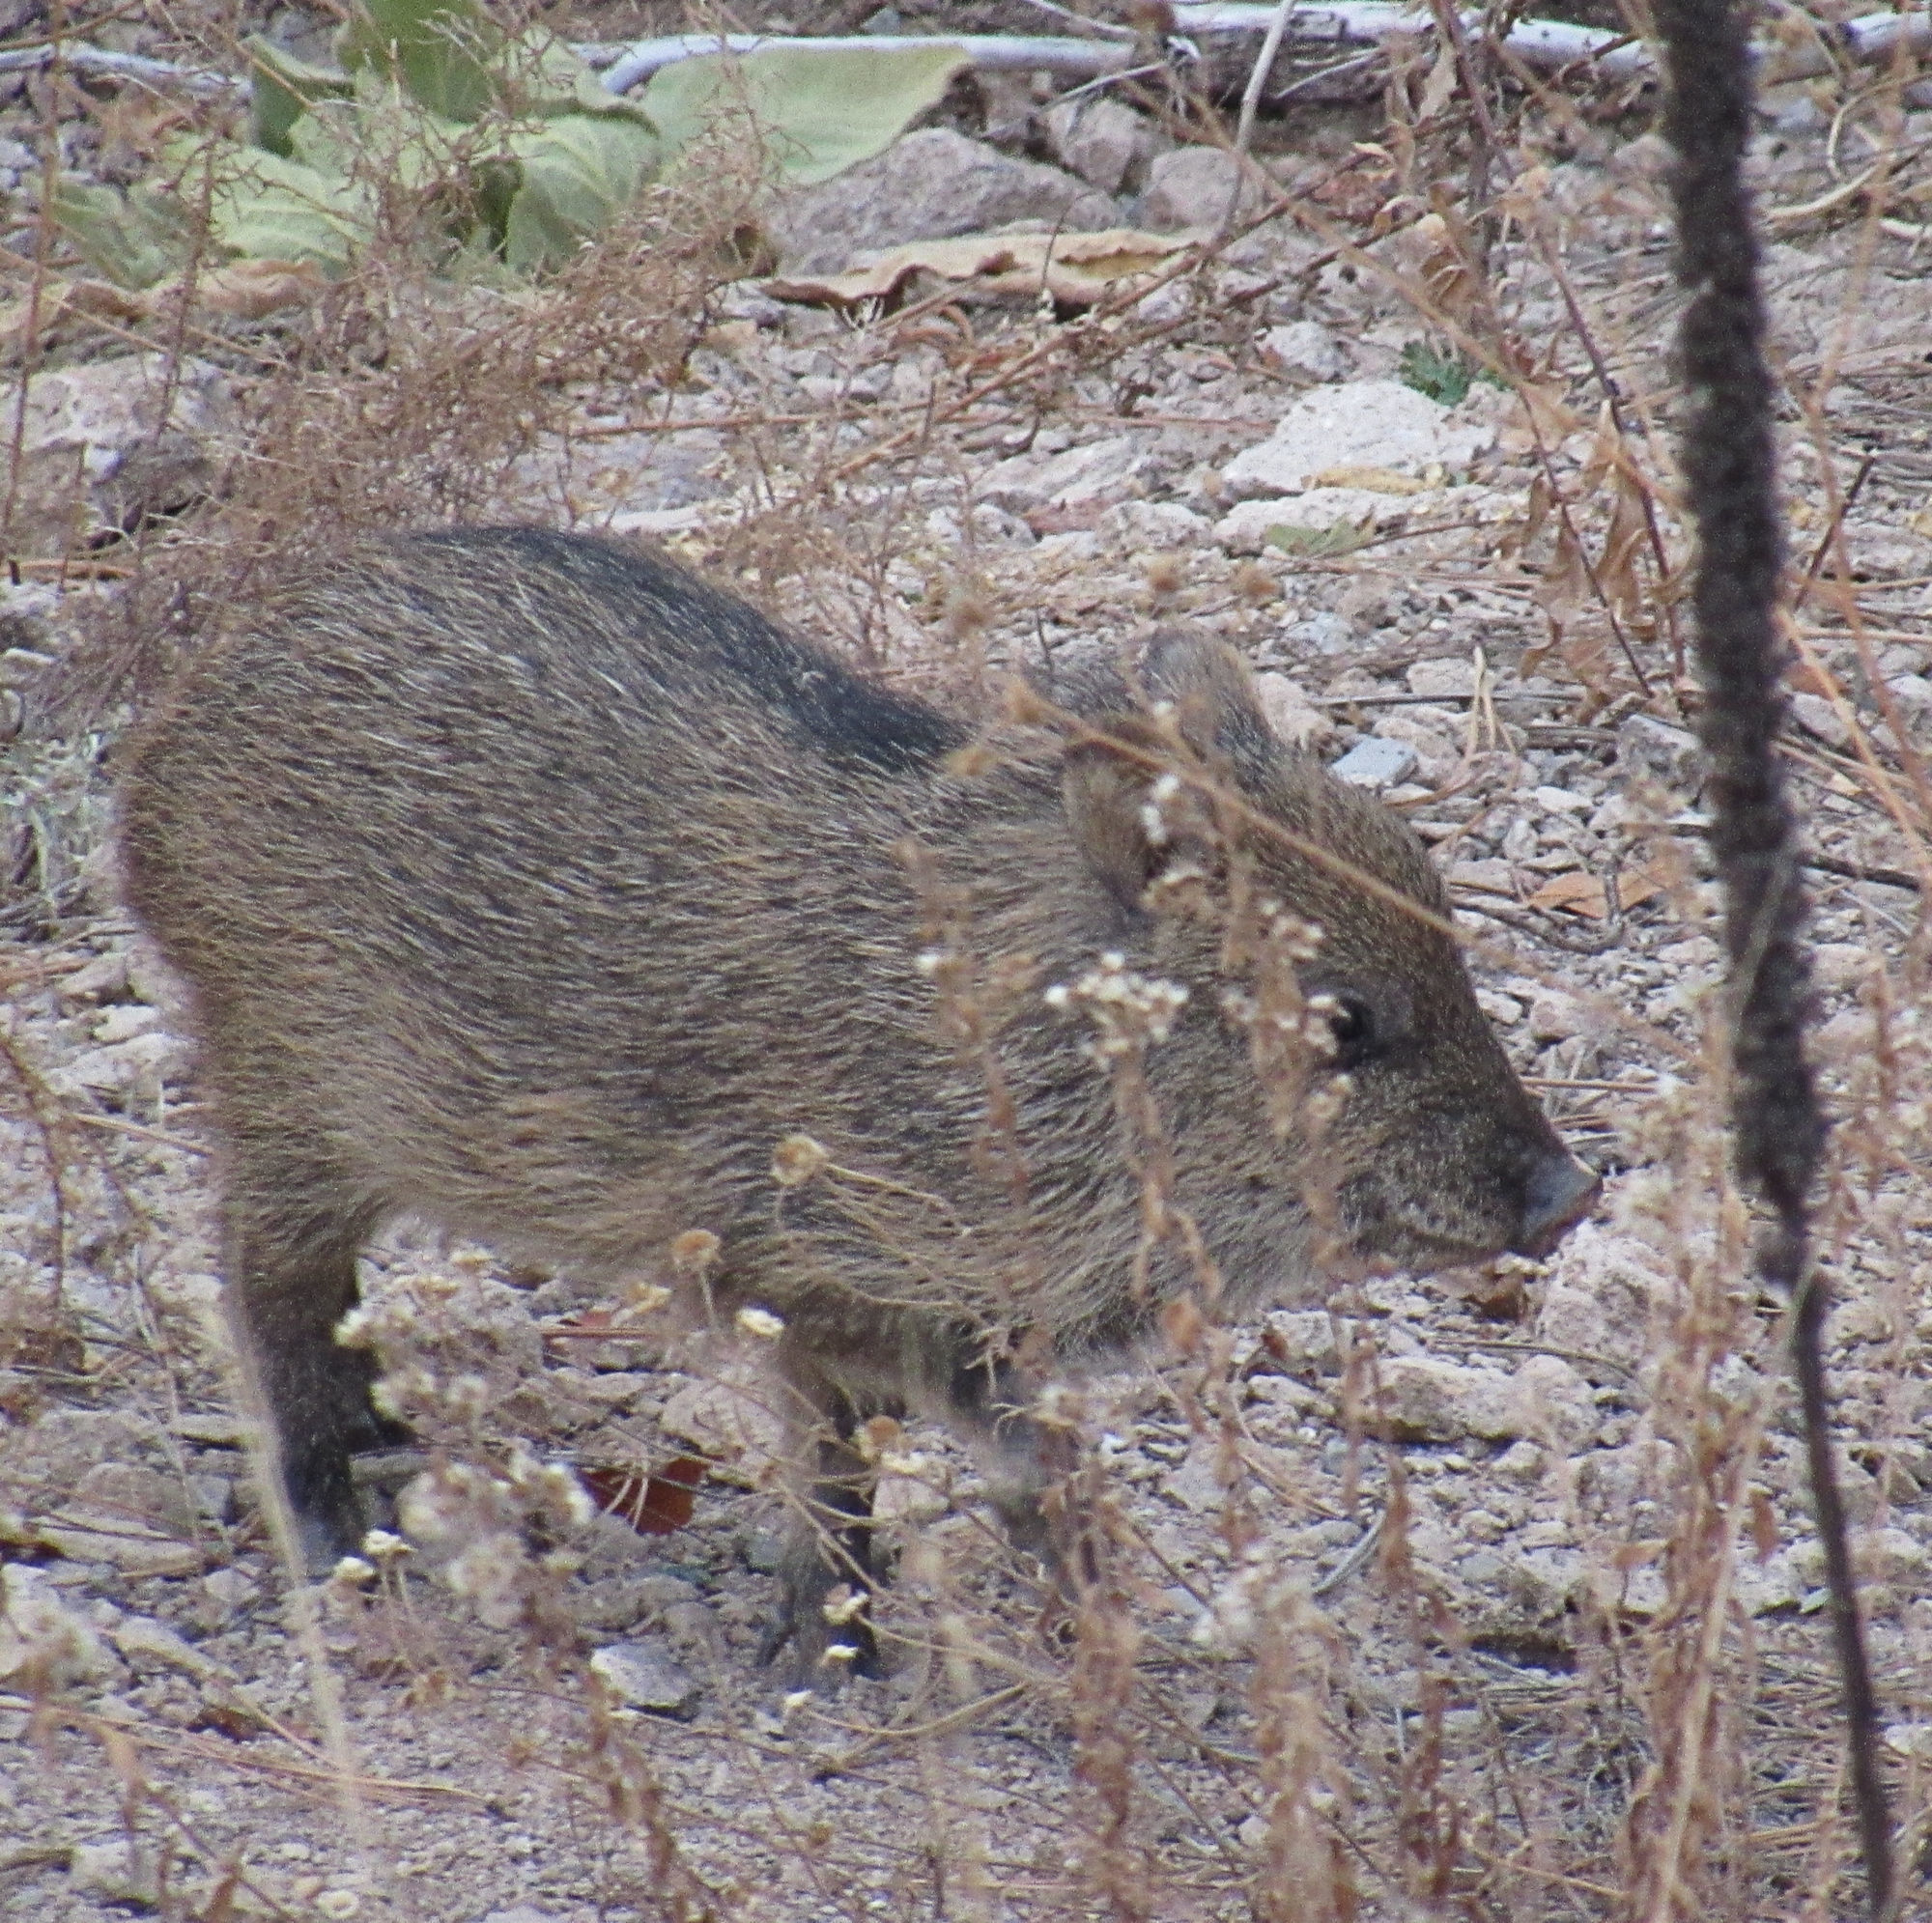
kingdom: Animalia
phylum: Chordata
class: Mammalia
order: Artiodactyla
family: Tayassuidae
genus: Pecari
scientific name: Pecari tajacu
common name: Collared peccary
